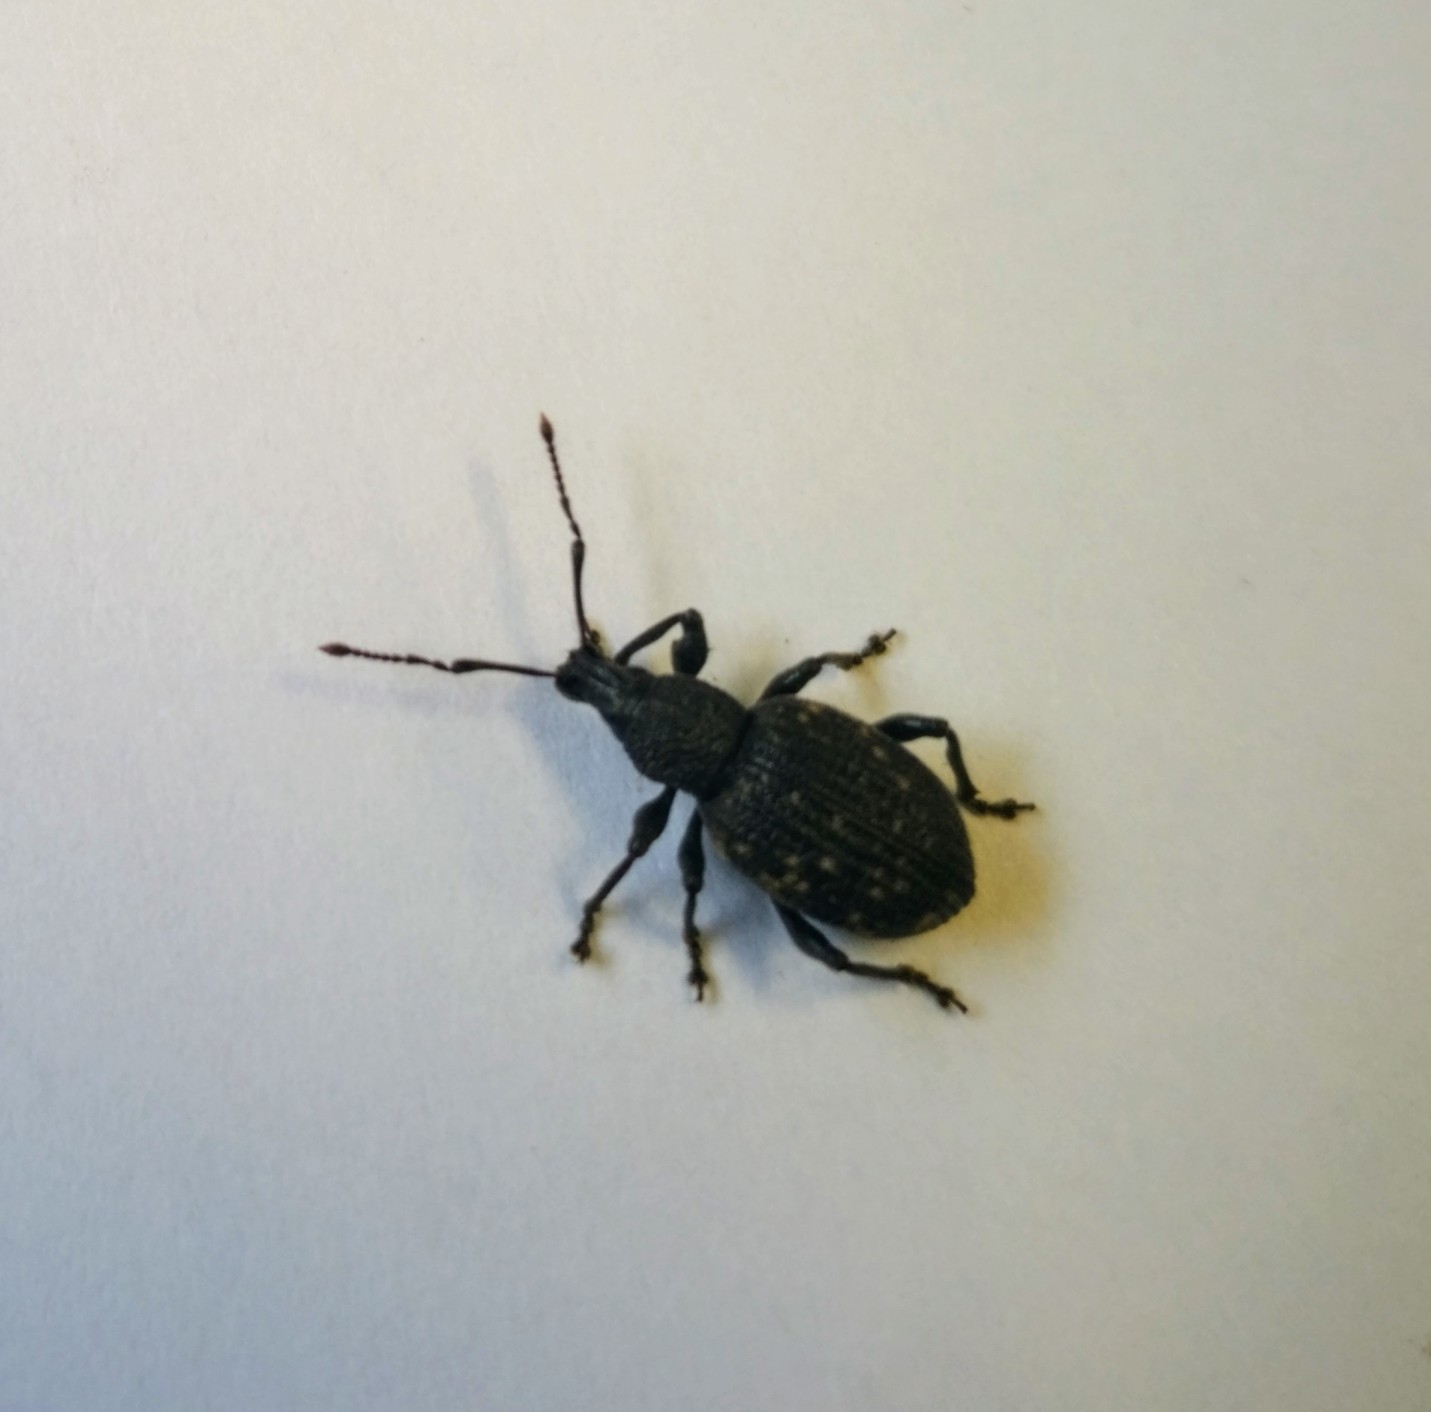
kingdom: Animalia
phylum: Arthropoda
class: Insecta
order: Coleoptera
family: Curculionidae
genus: Otiorhynchus
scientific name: Otiorhynchus sulcatus
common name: Black vine weevil
